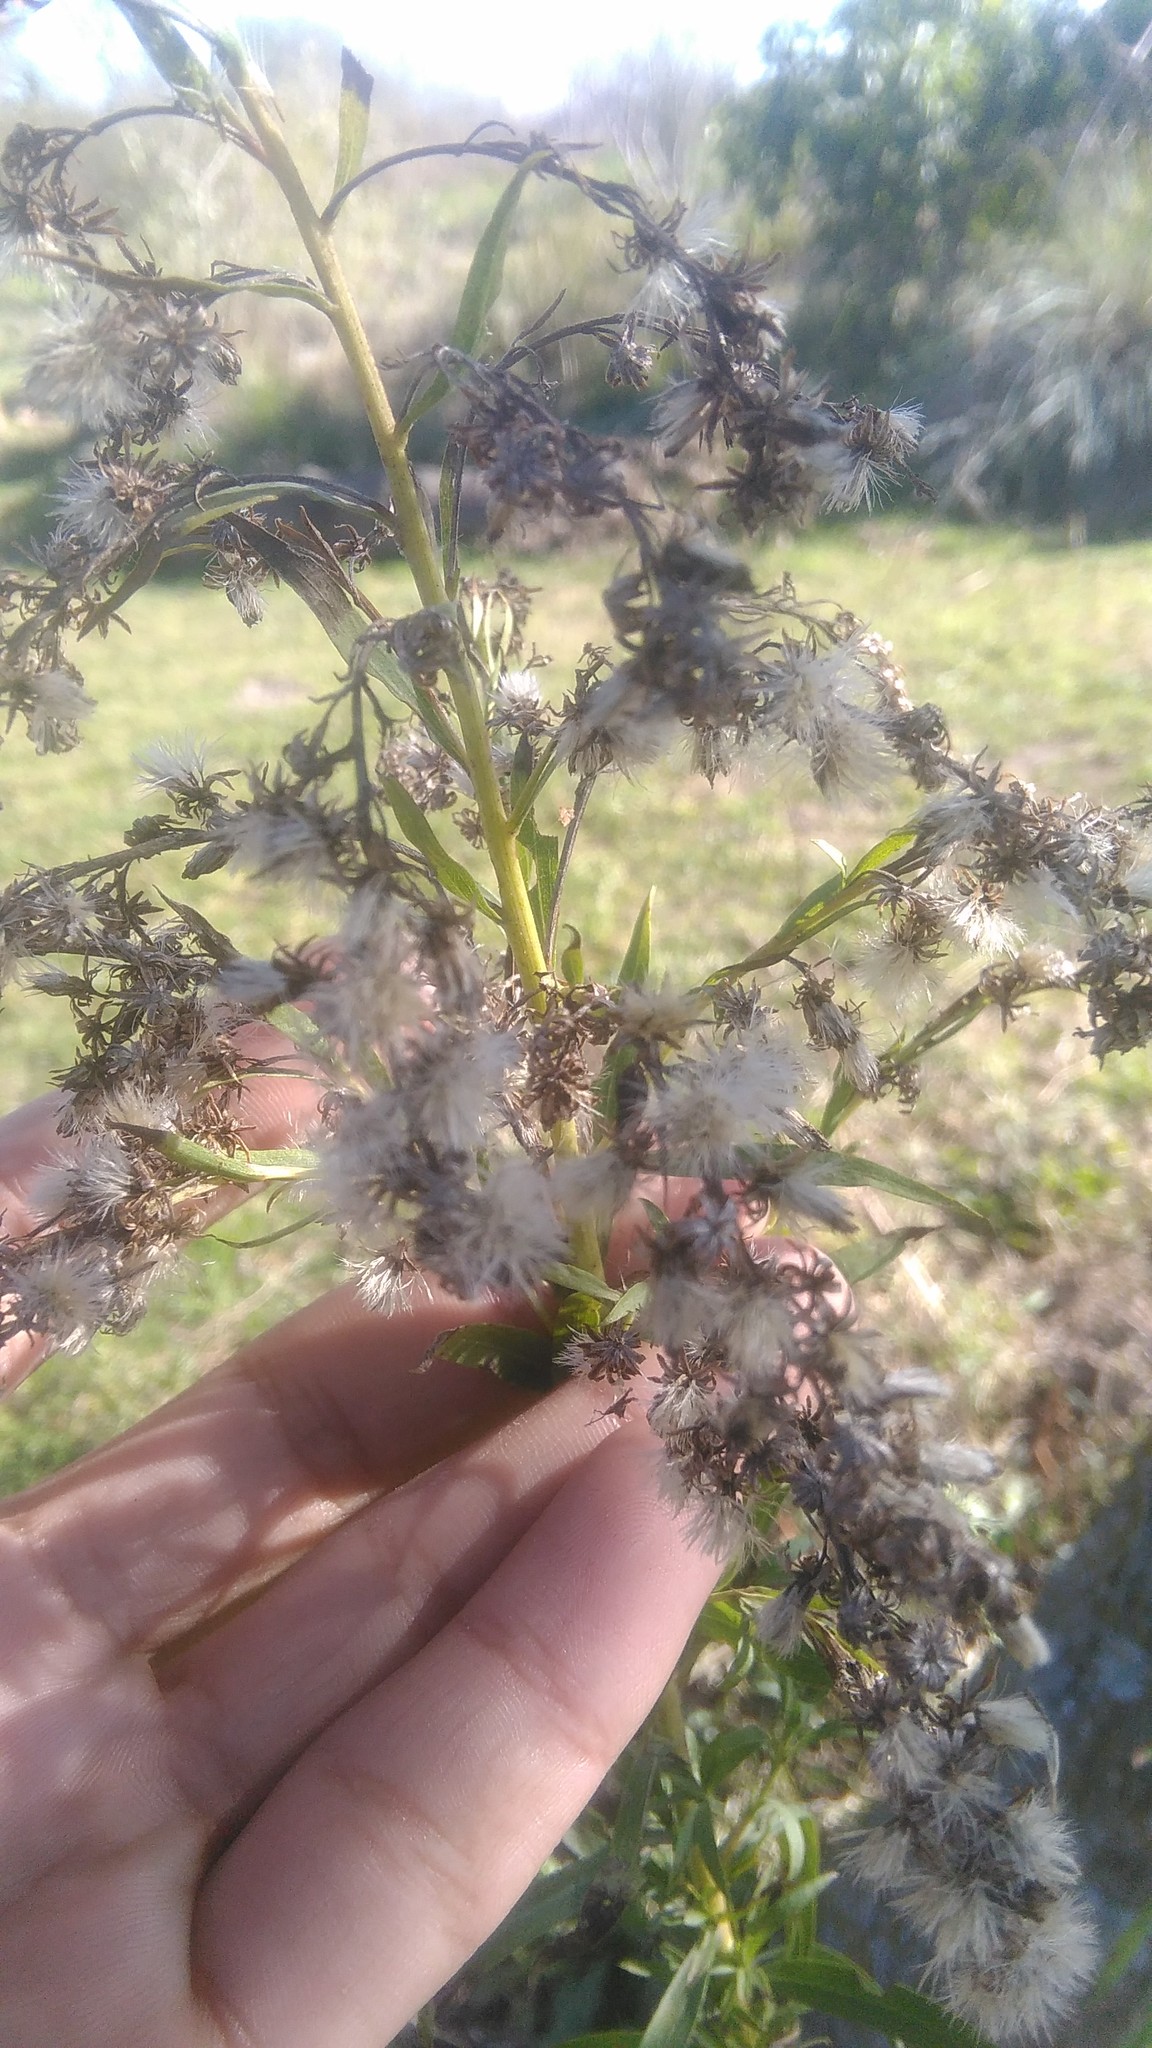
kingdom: Plantae
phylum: Tracheophyta
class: Magnoliopsida
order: Asterales
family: Asteraceae
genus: Solidago
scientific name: Solidago chilensis
